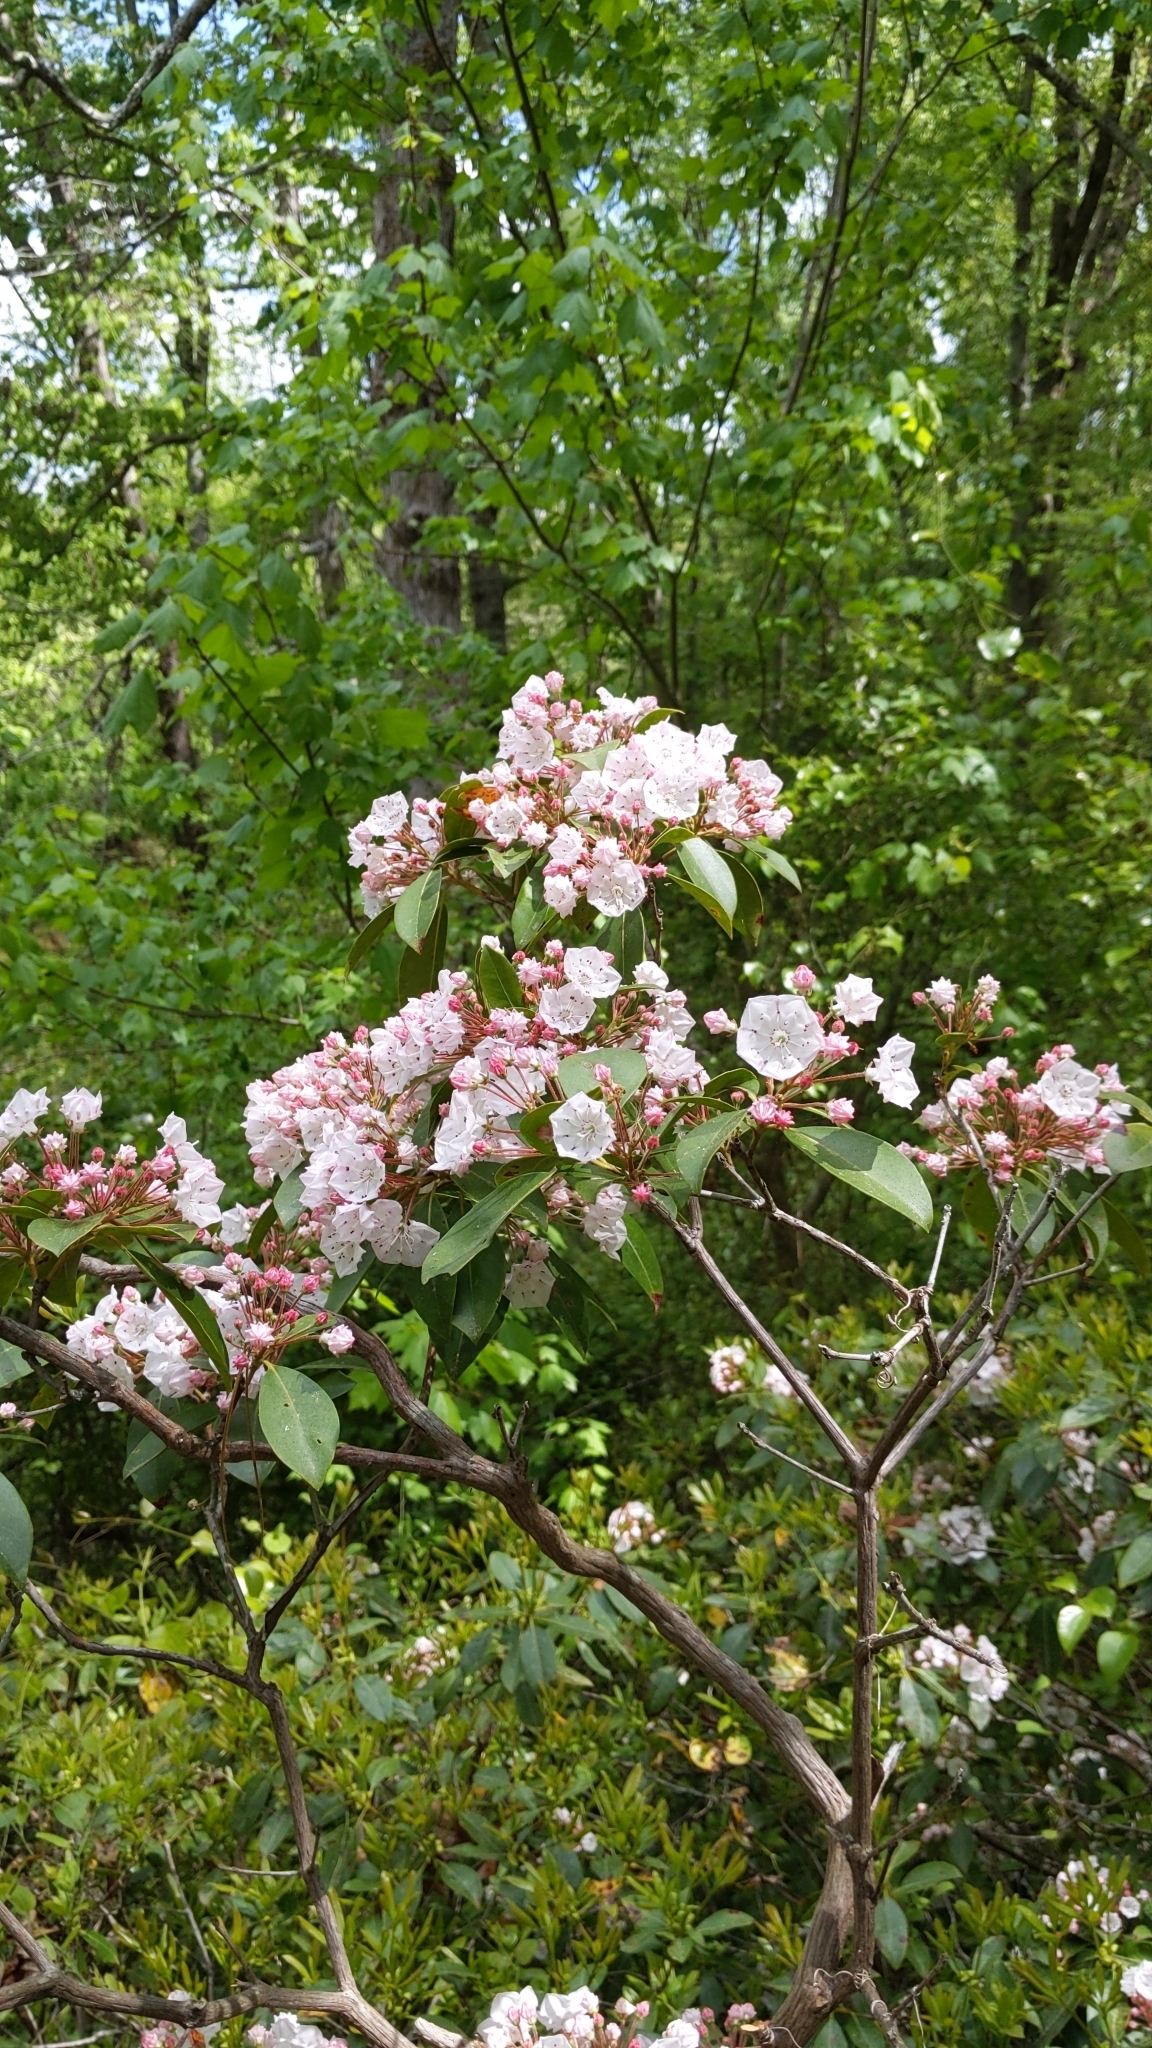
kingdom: Plantae
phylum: Tracheophyta
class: Magnoliopsida
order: Ericales
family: Ericaceae
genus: Kalmia
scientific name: Kalmia latifolia
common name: Mountain-laurel
